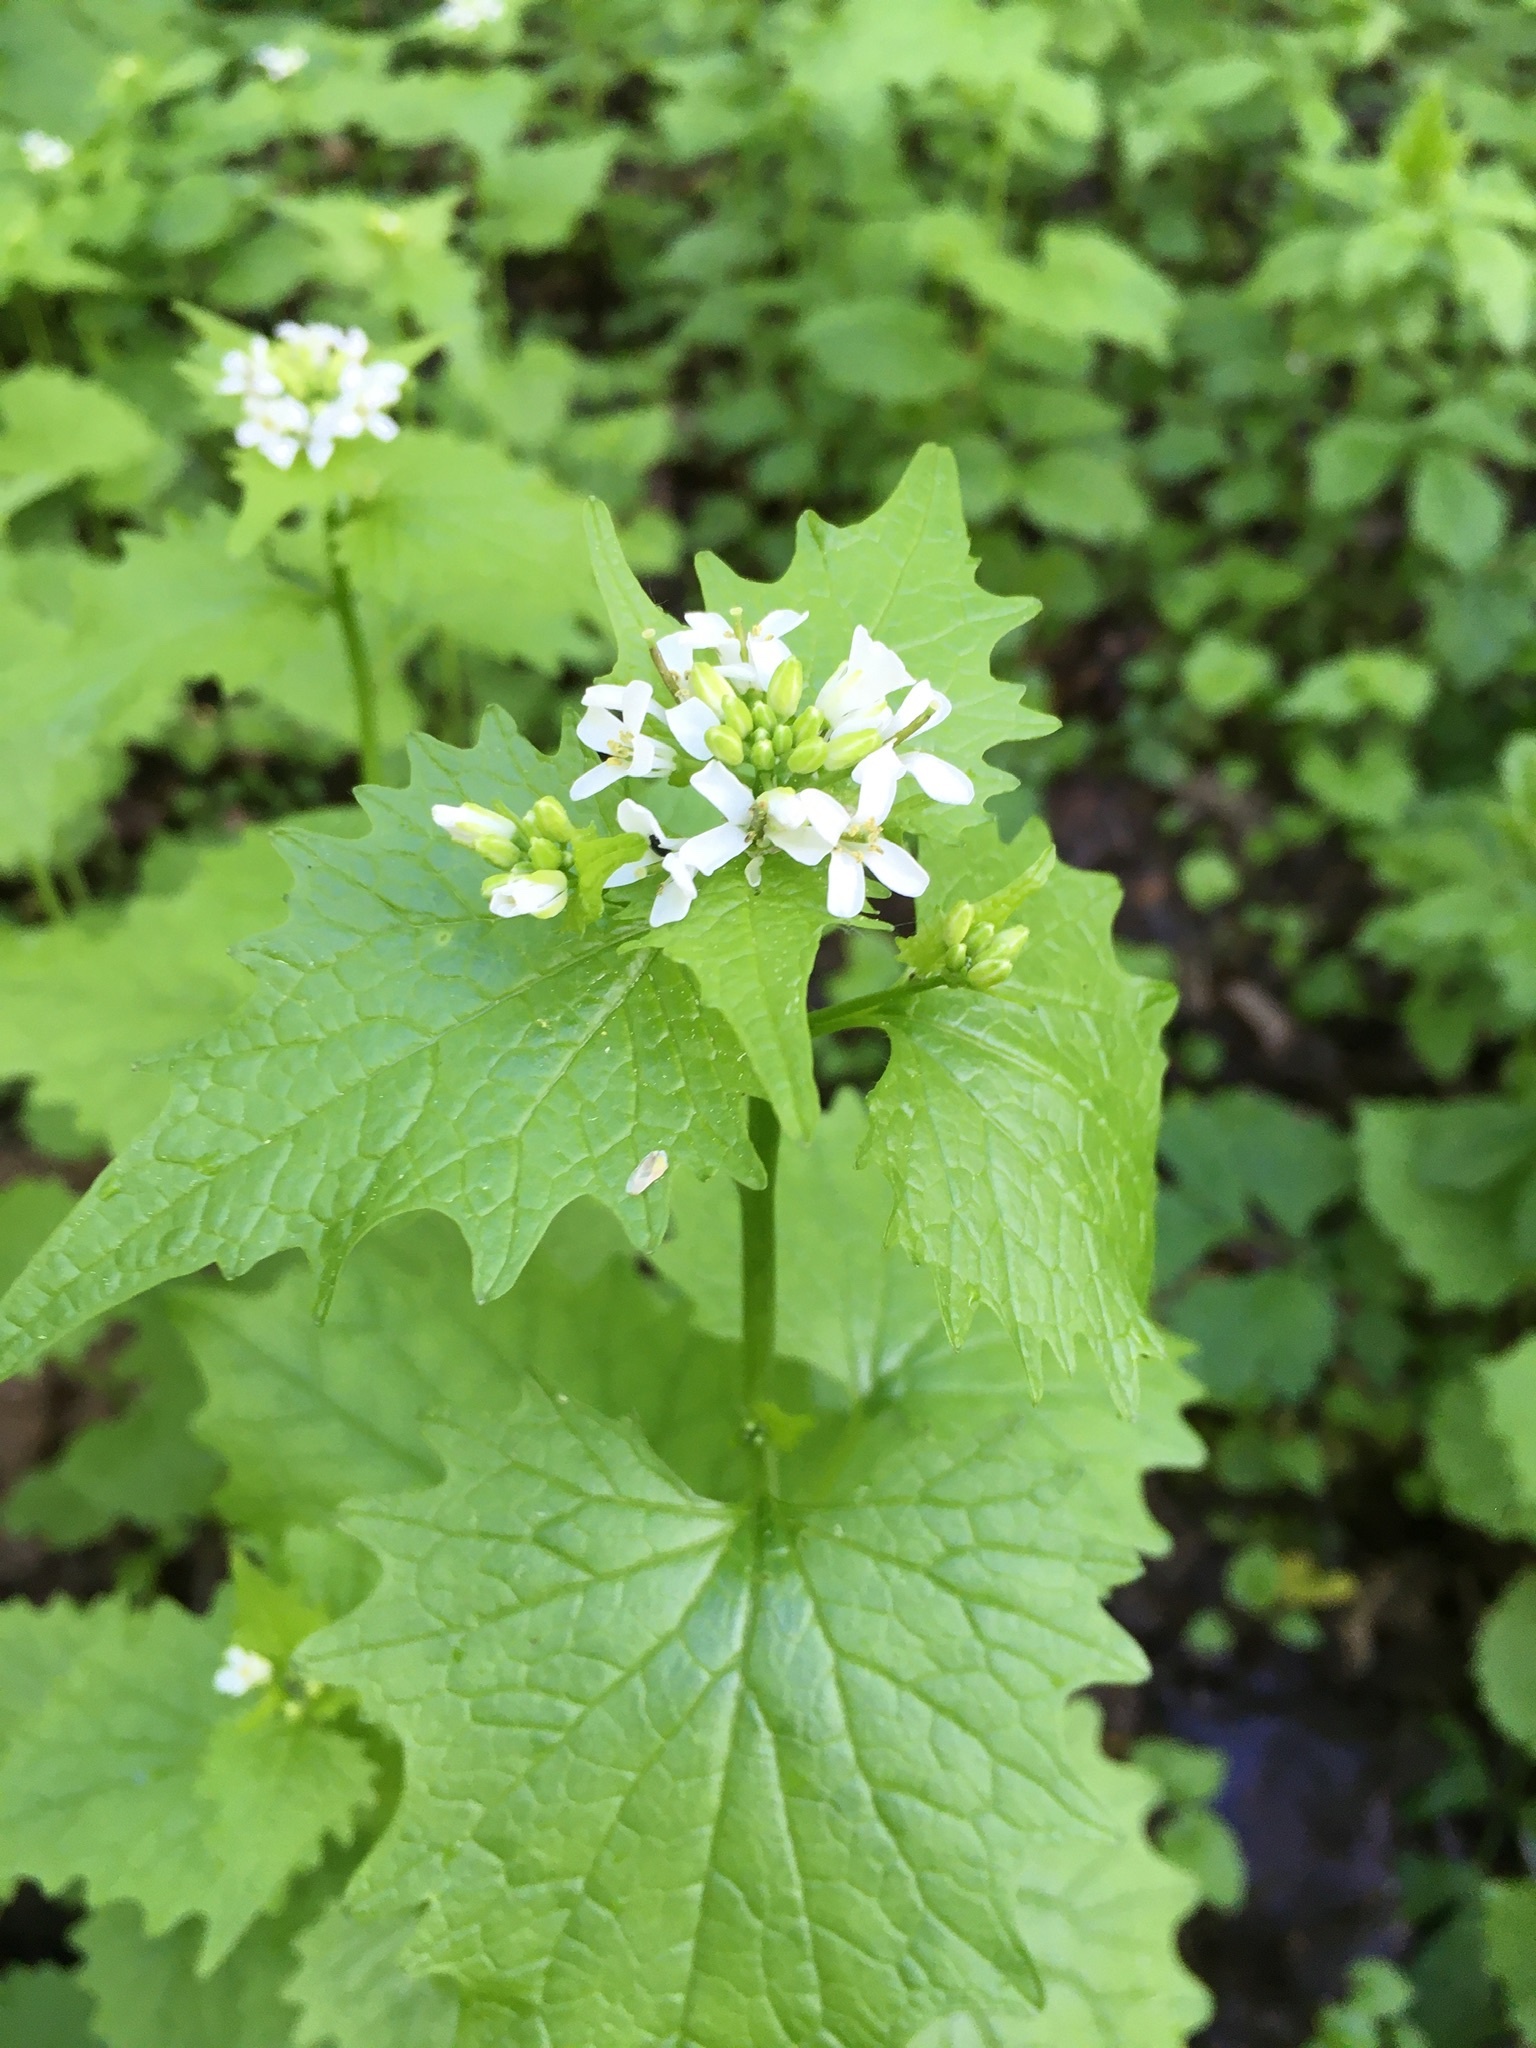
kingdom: Plantae
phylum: Tracheophyta
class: Magnoliopsida
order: Brassicales
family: Brassicaceae
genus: Alliaria
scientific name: Alliaria petiolata
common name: Garlic mustard
